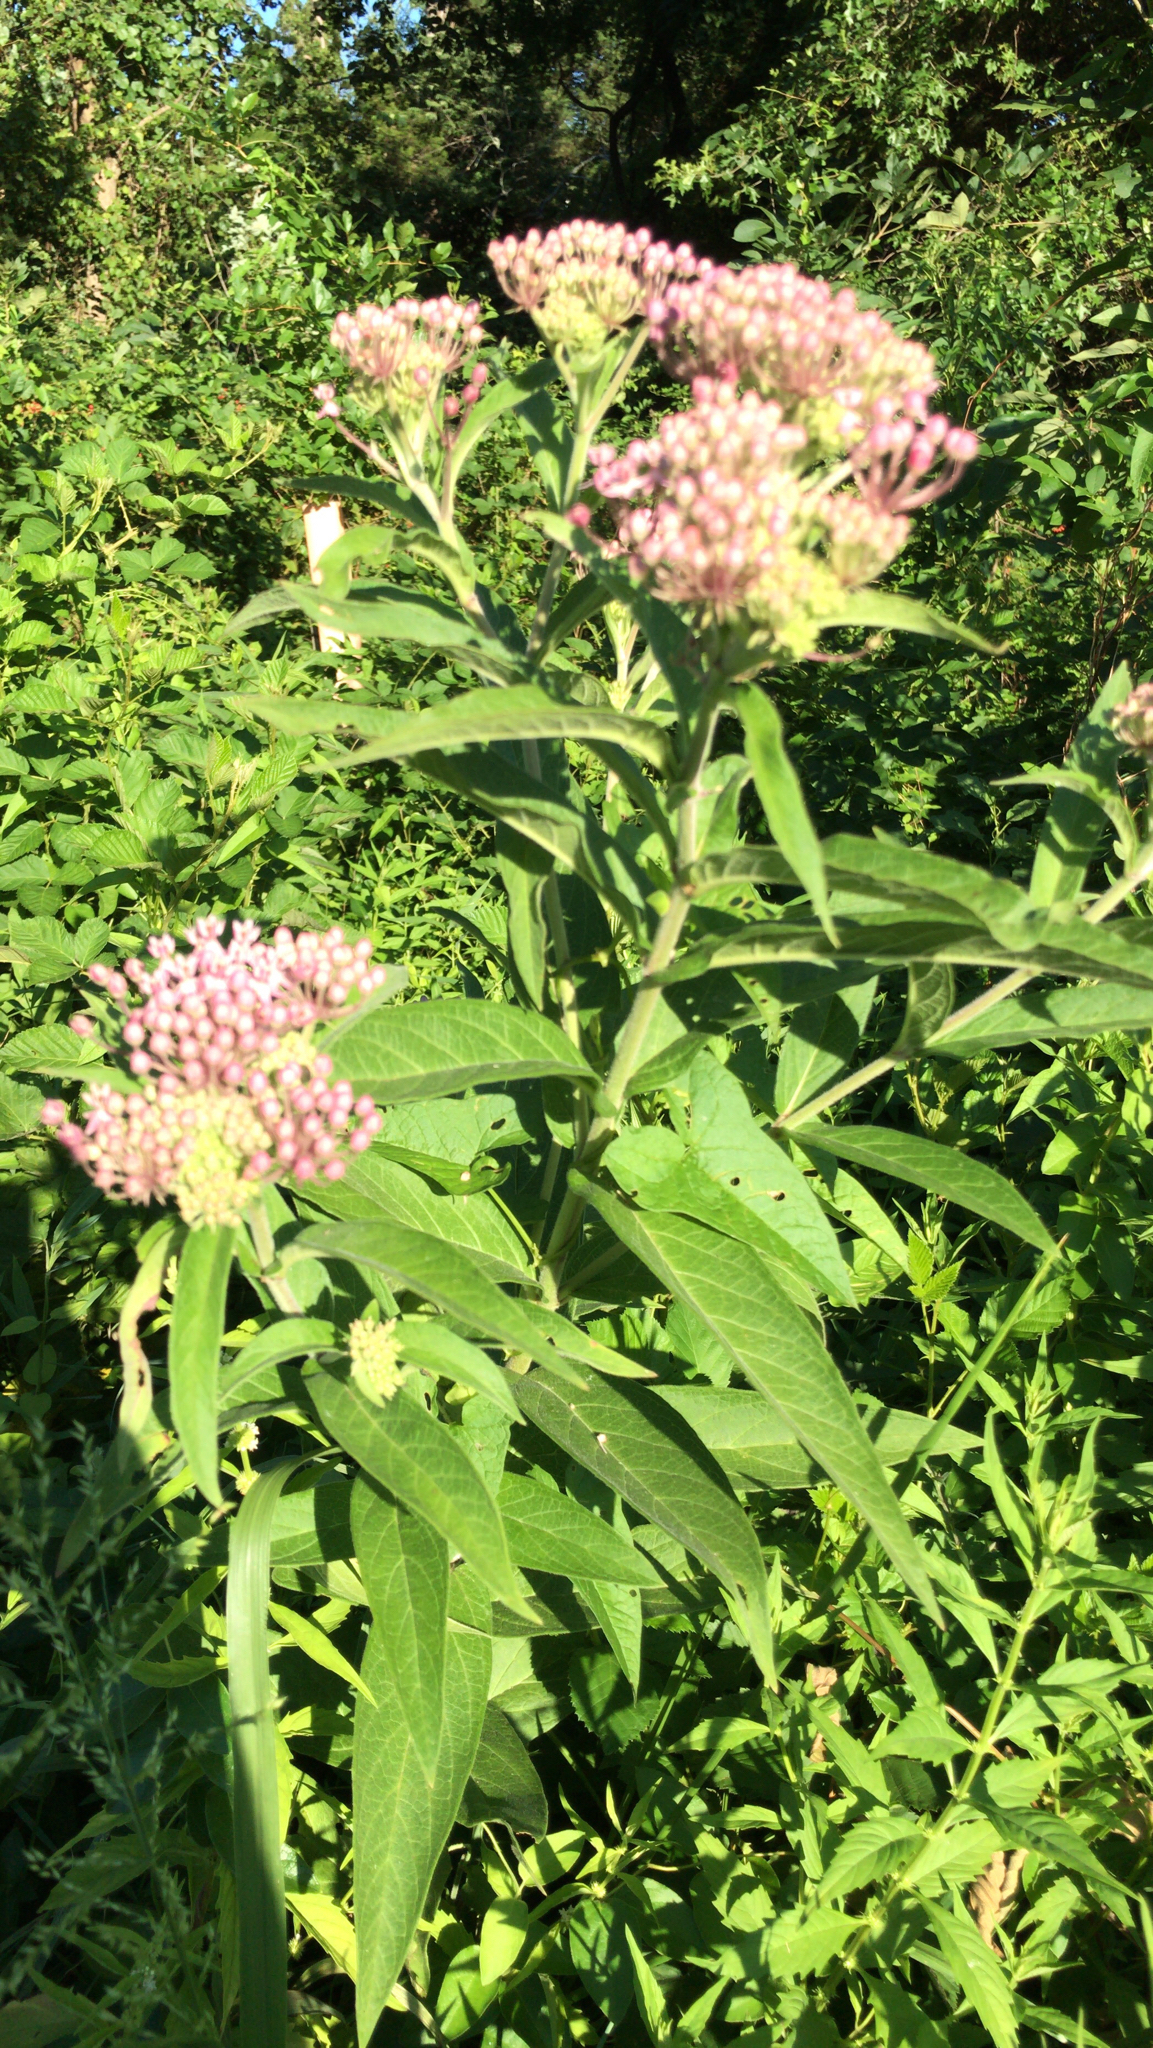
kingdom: Plantae
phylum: Tracheophyta
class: Magnoliopsida
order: Gentianales
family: Apocynaceae
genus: Asclepias
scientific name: Asclepias incarnata
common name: Swamp milkweed
